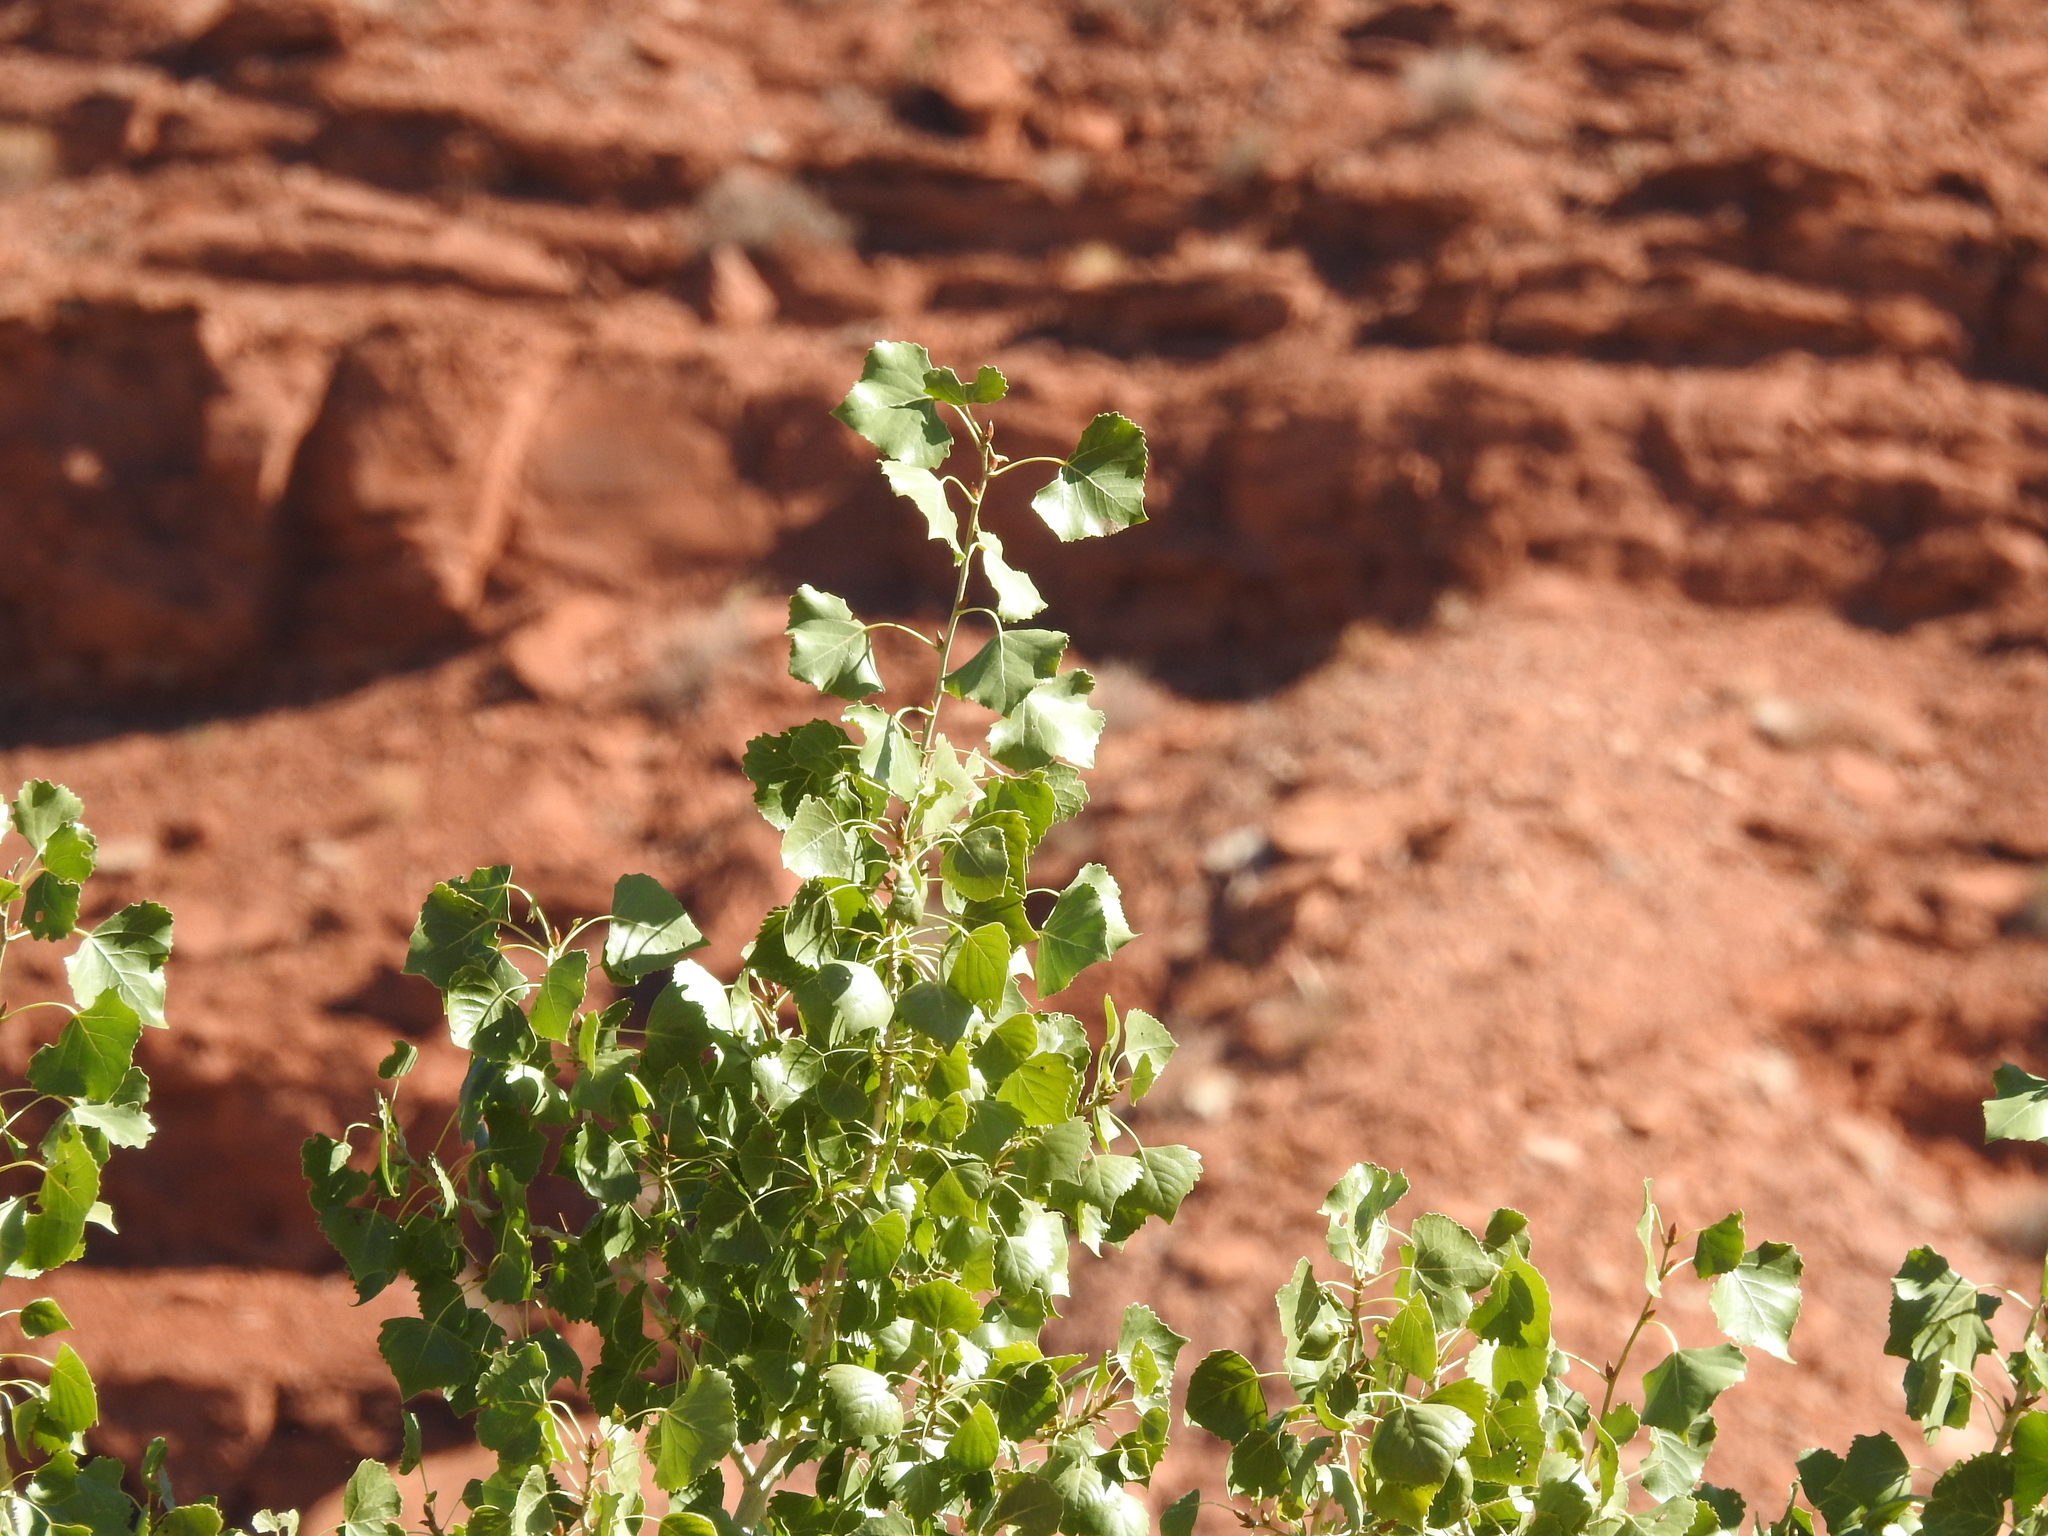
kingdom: Plantae
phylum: Tracheophyta
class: Magnoliopsida
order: Malpighiales
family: Salicaceae
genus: Populus
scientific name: Populus fremontii
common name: Fremont's cottonwood
